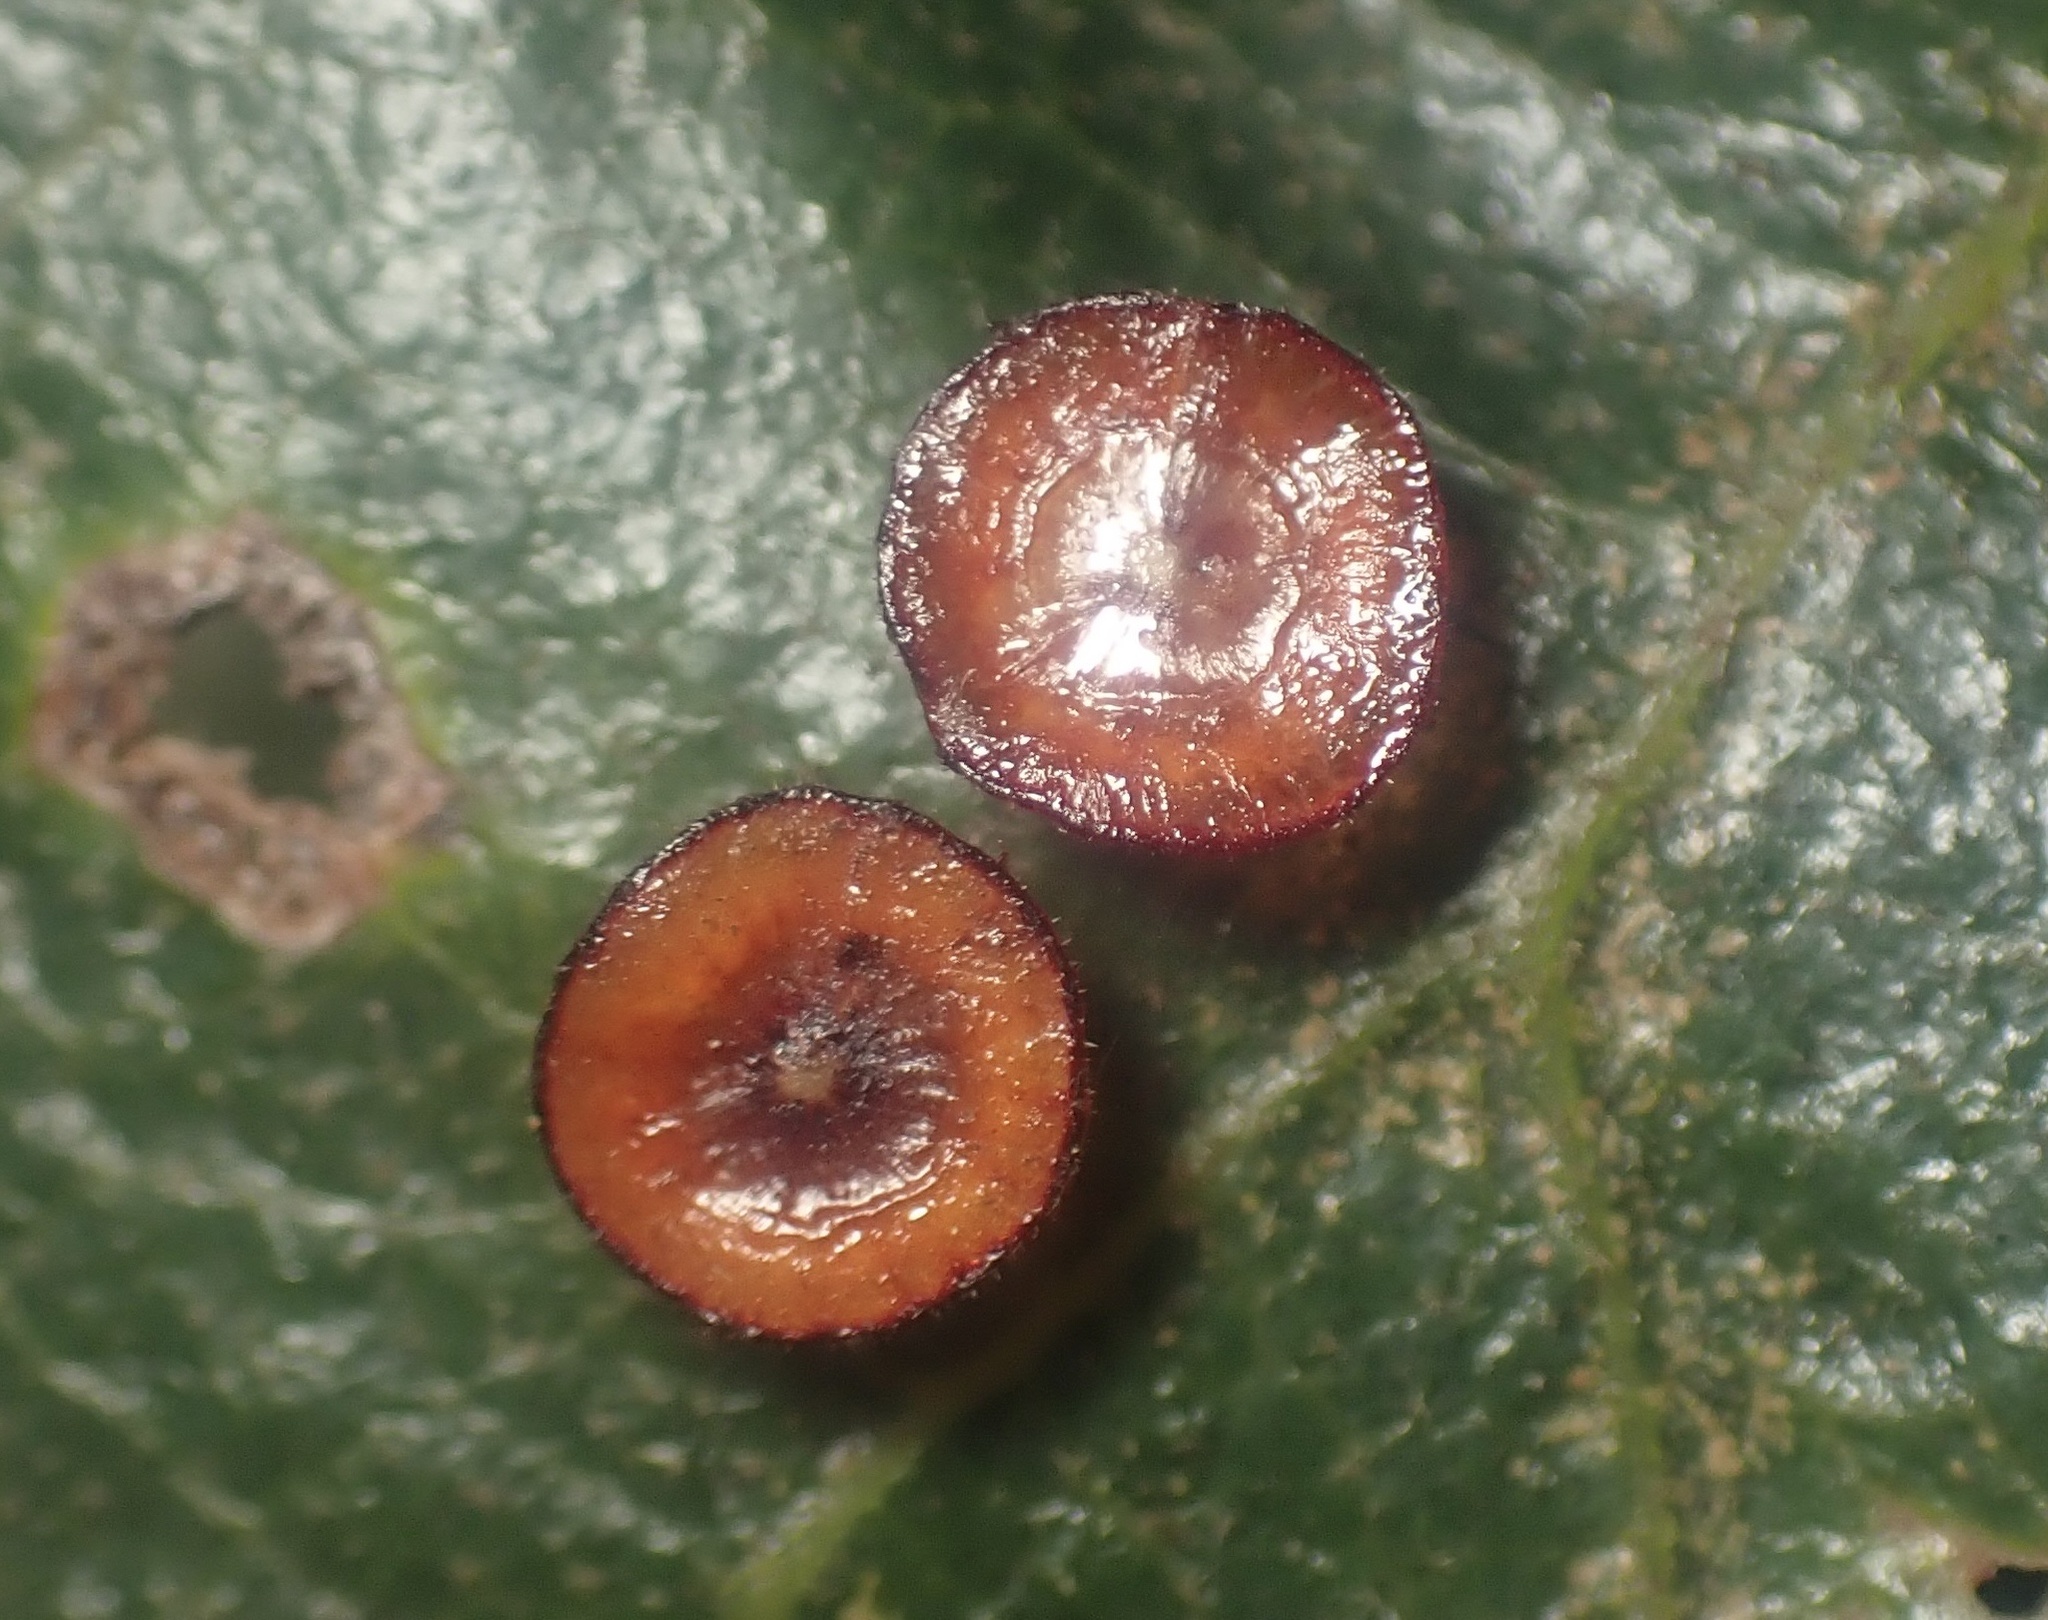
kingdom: Animalia
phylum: Arthropoda
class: Insecta
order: Hymenoptera
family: Cynipidae
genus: Andricus
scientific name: Andricus
